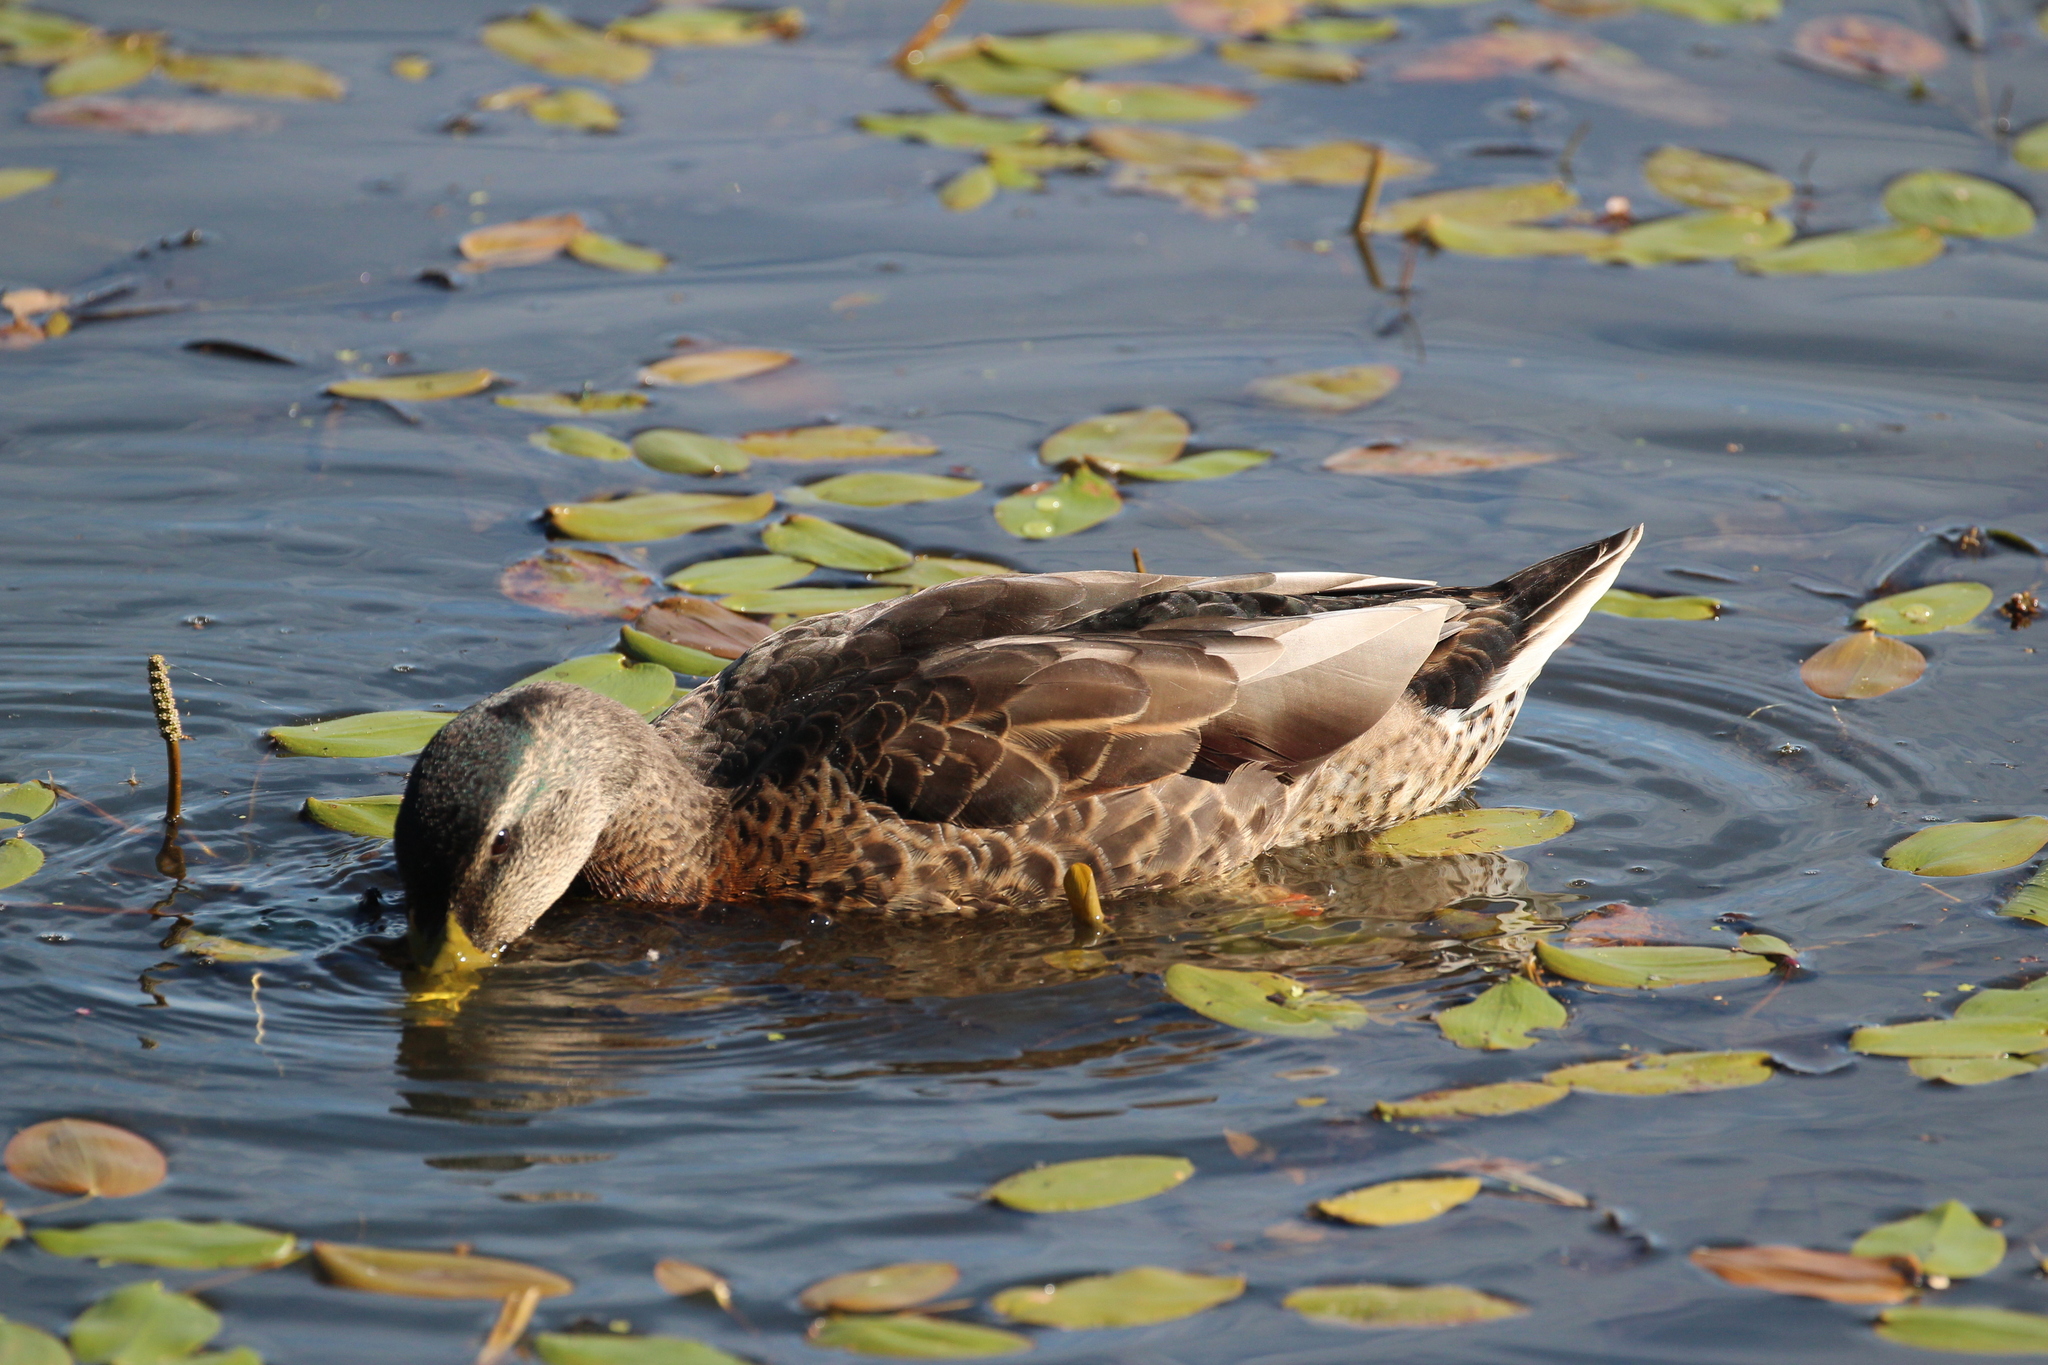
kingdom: Animalia
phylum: Chordata
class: Aves
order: Anseriformes
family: Anatidae
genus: Anas
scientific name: Anas platyrhynchos
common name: Mallard
